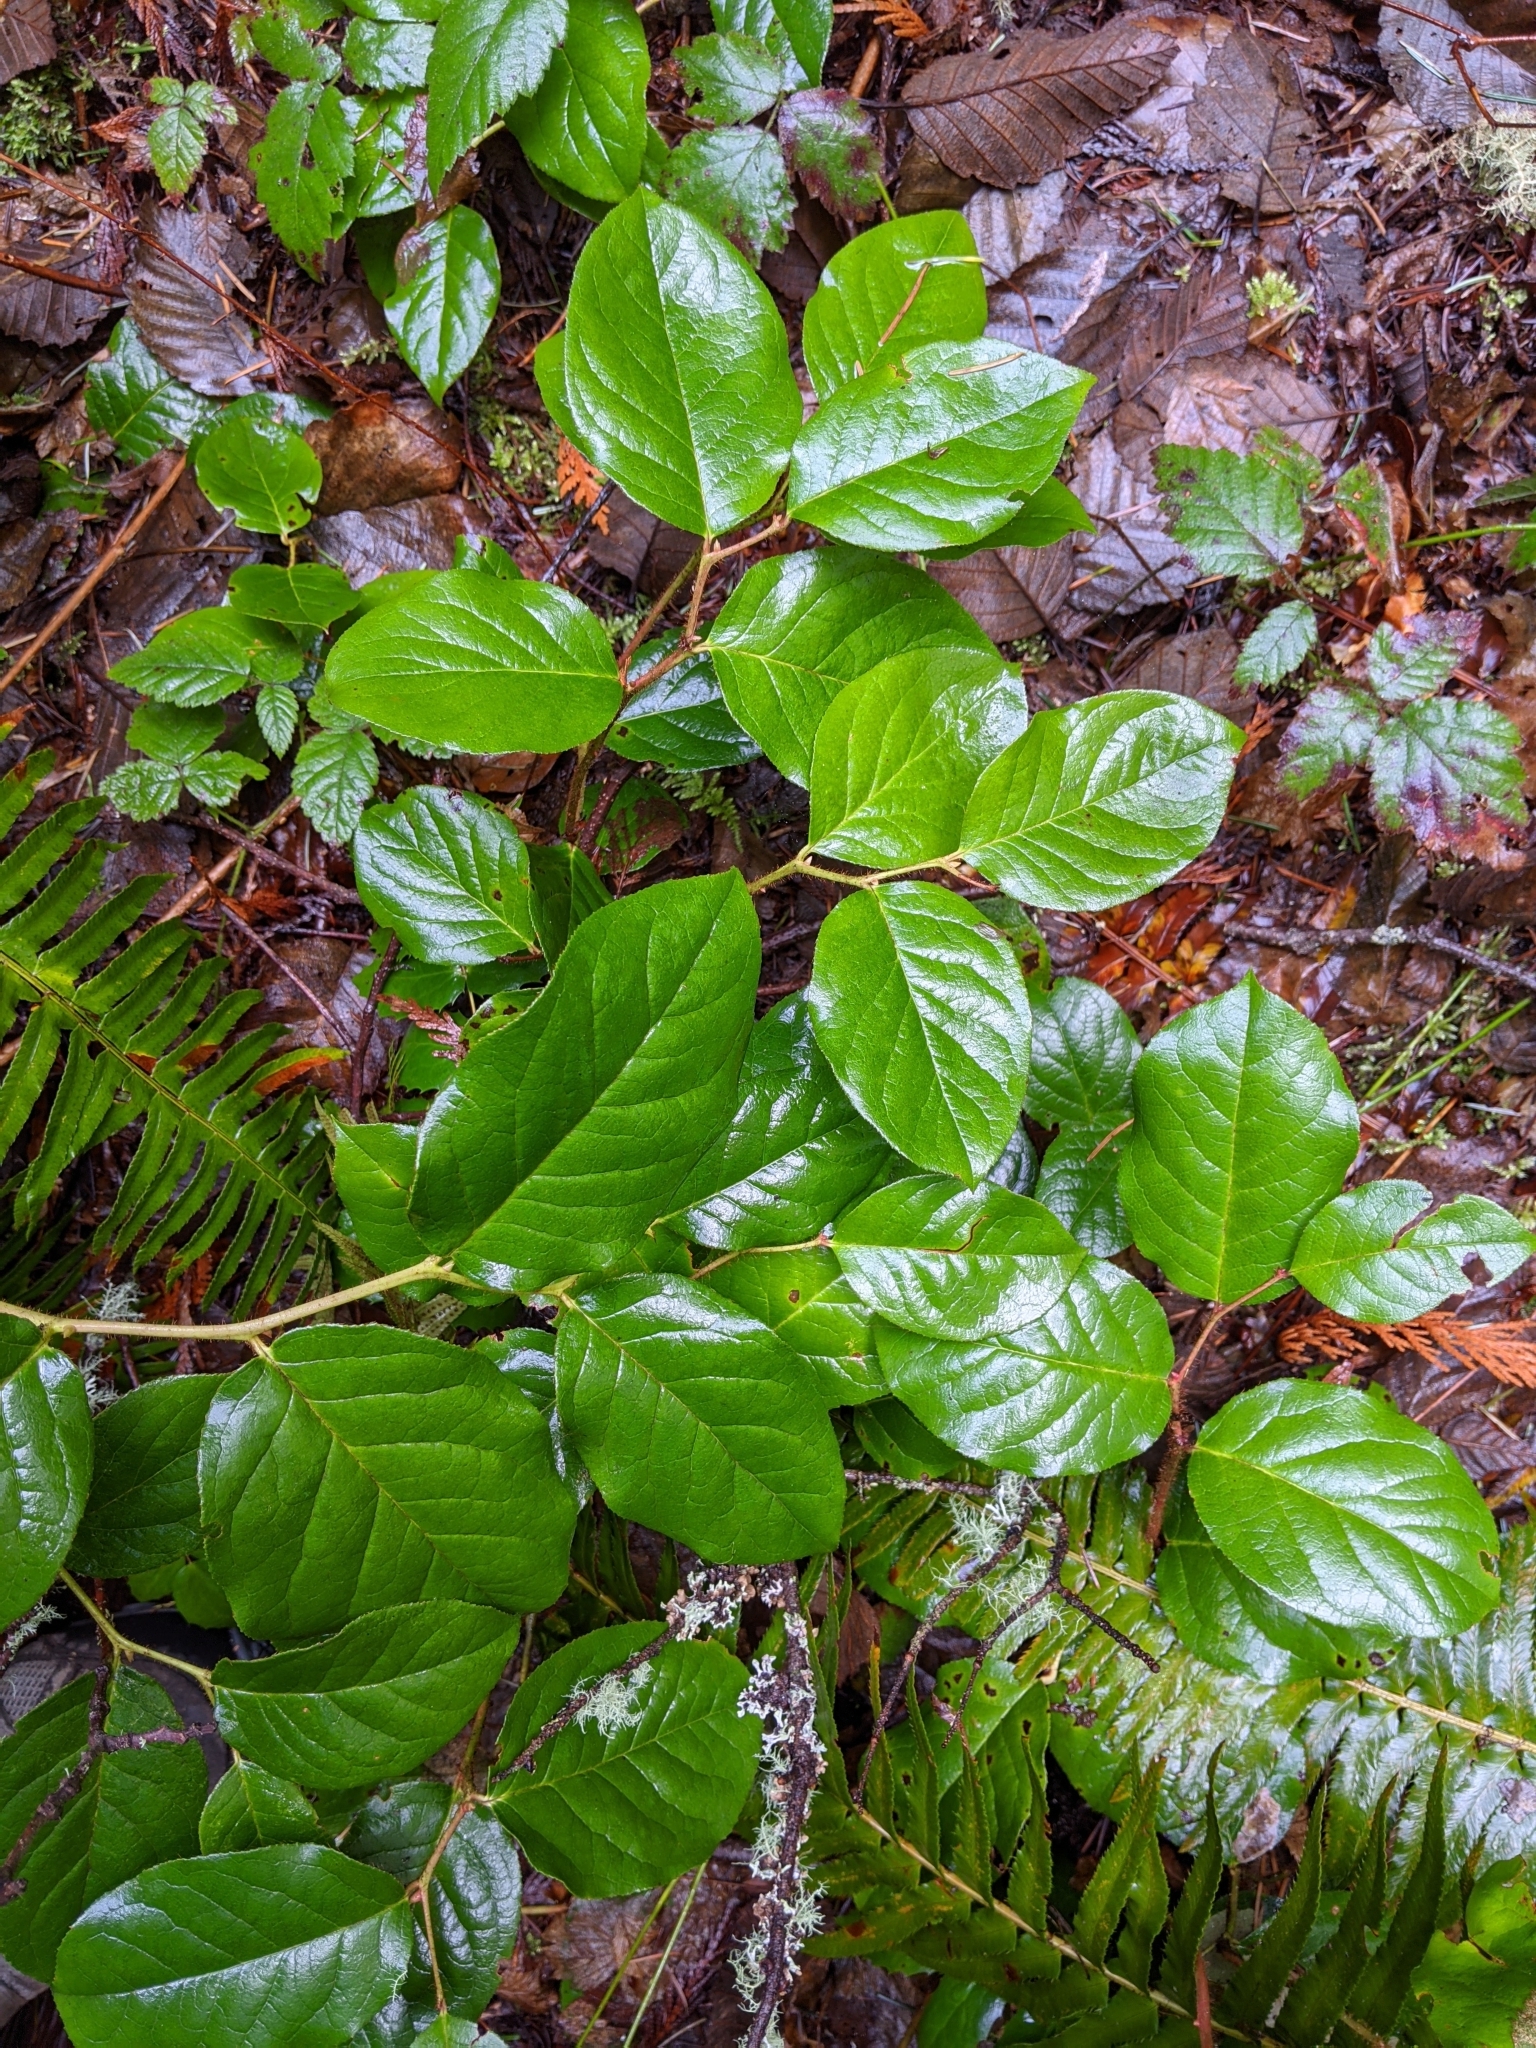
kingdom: Plantae
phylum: Tracheophyta
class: Magnoliopsida
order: Ericales
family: Ericaceae
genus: Gaultheria
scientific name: Gaultheria shallon
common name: Shallon
